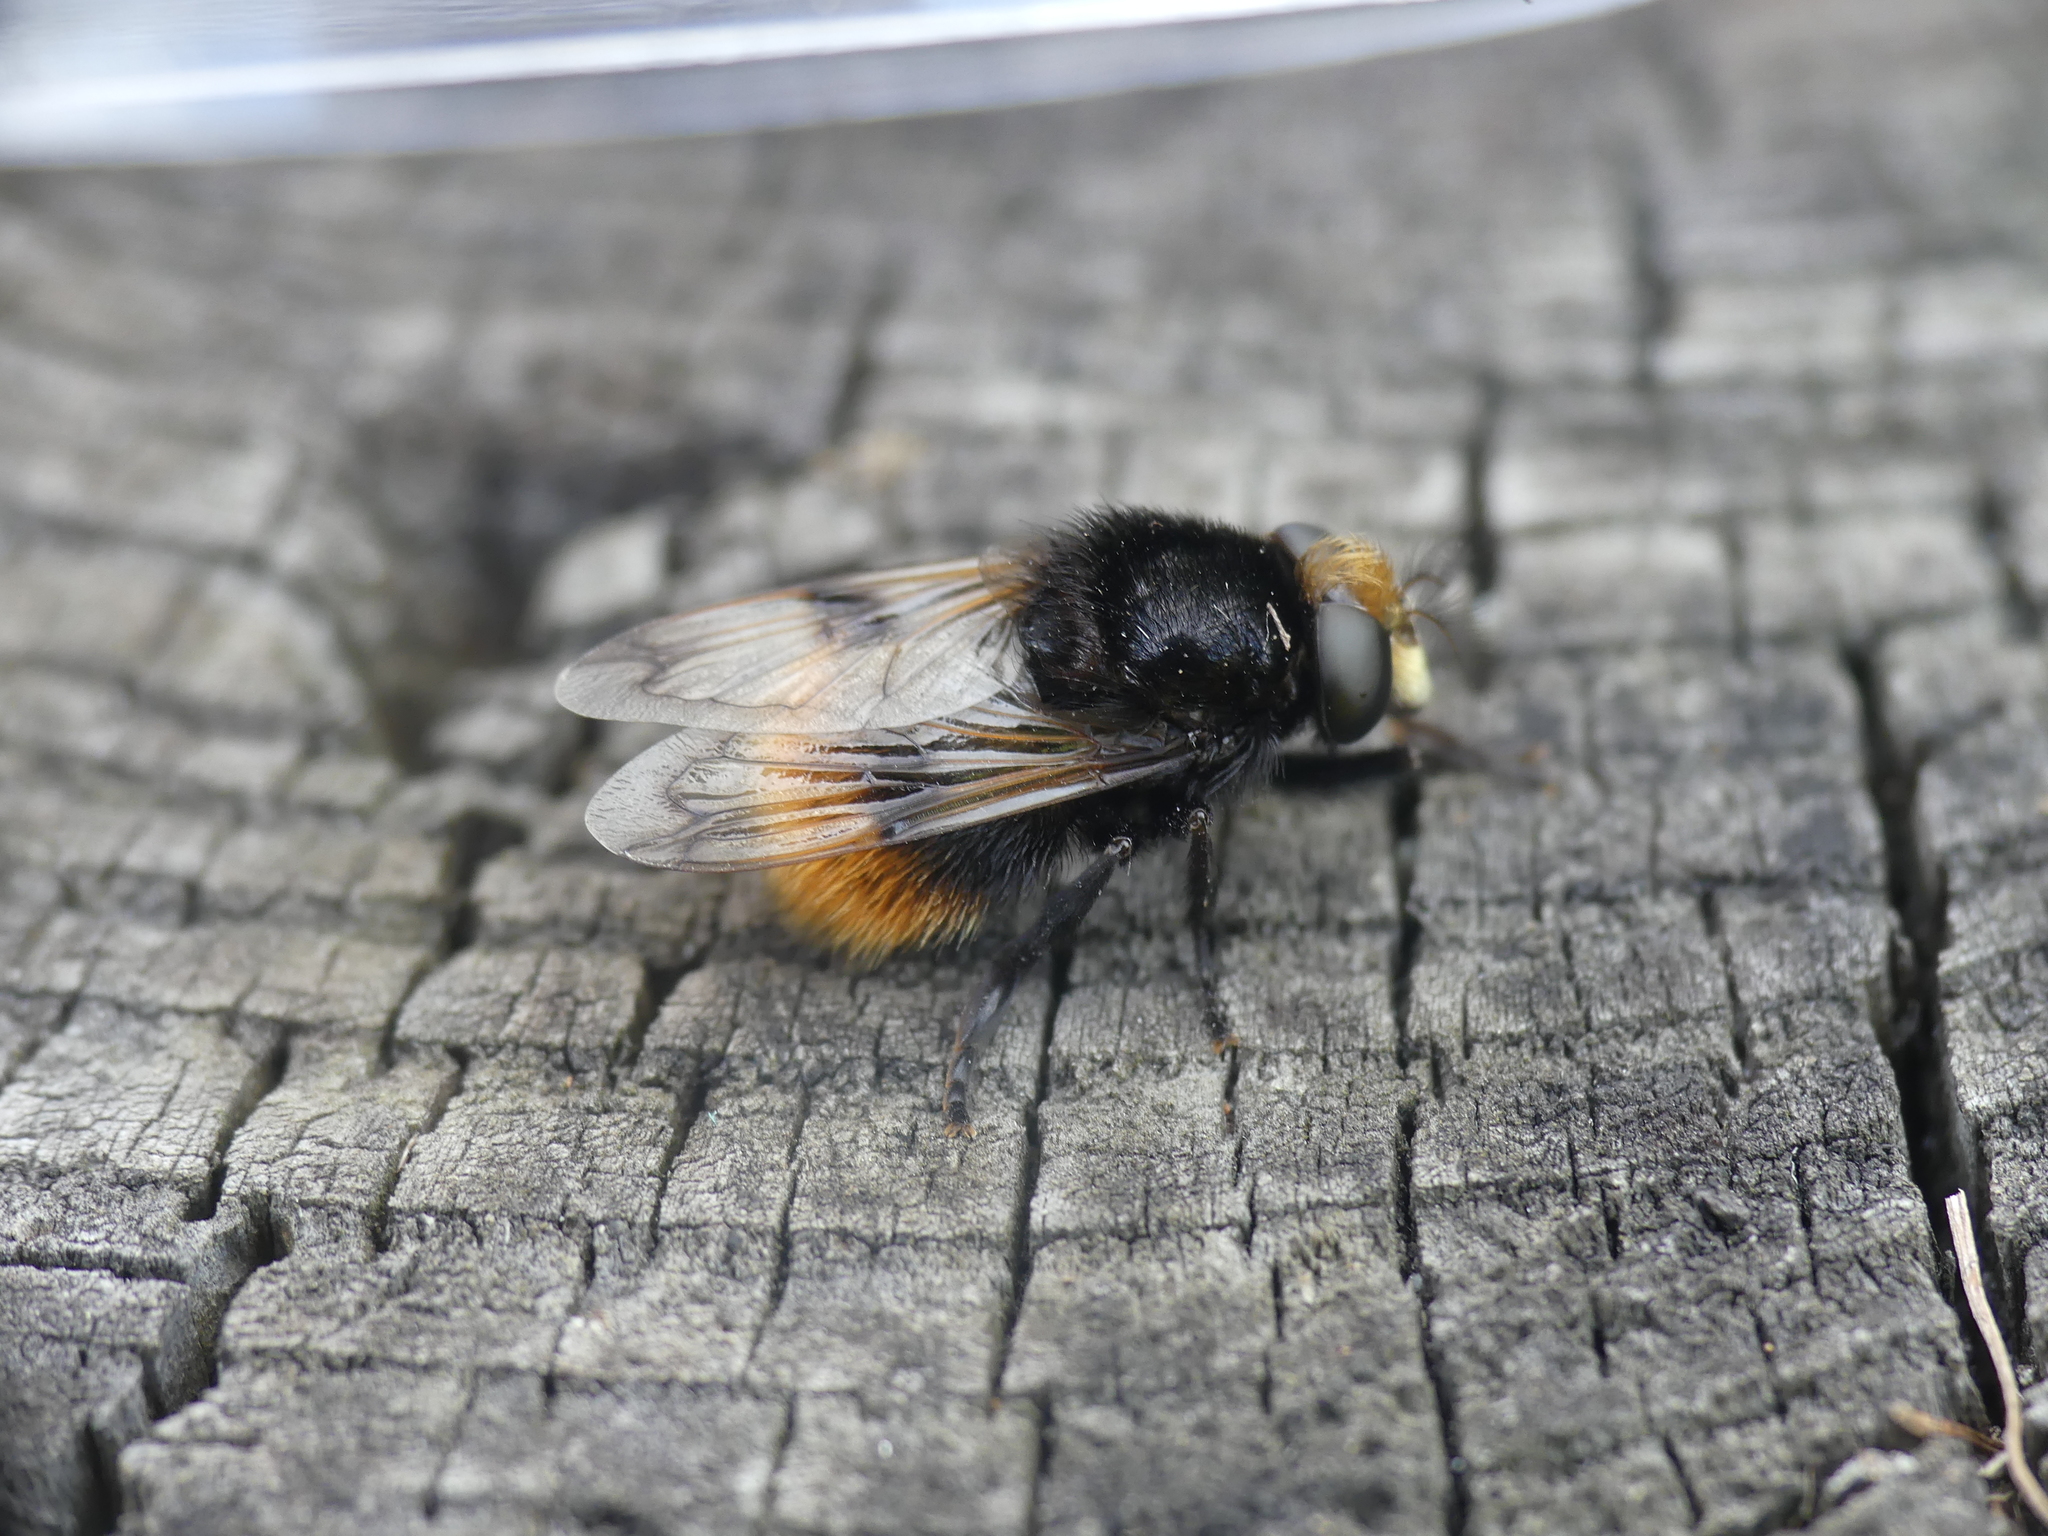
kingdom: Animalia
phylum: Arthropoda
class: Insecta
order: Diptera
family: Syrphidae
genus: Volucella
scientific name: Volucella bombylans
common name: Bumble bee hover fly
